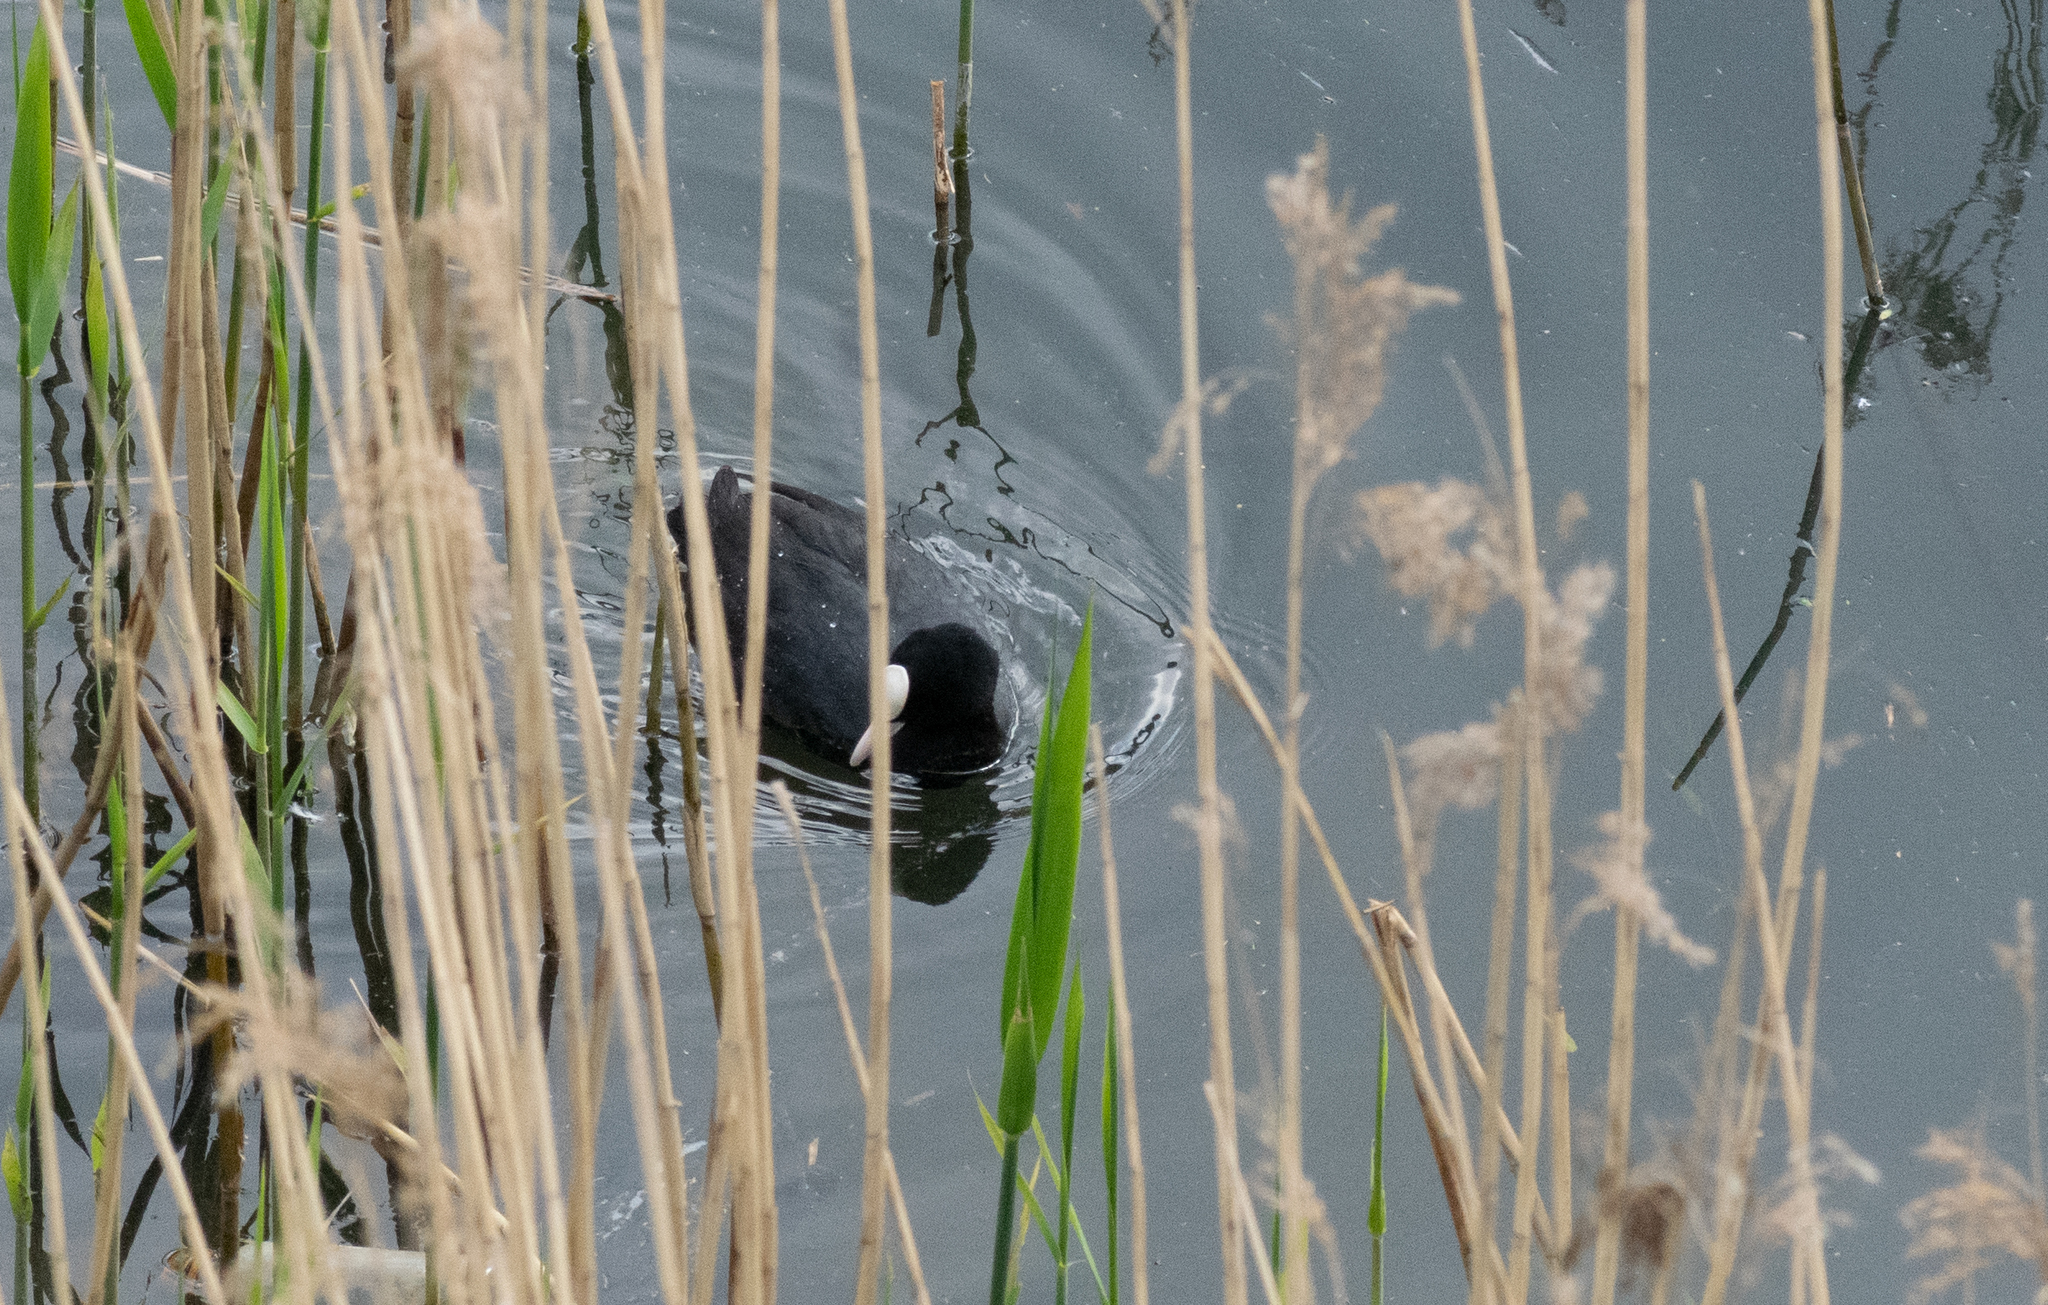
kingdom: Animalia
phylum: Chordata
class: Aves
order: Gruiformes
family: Rallidae
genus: Fulica
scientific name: Fulica atra
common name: Eurasian coot
